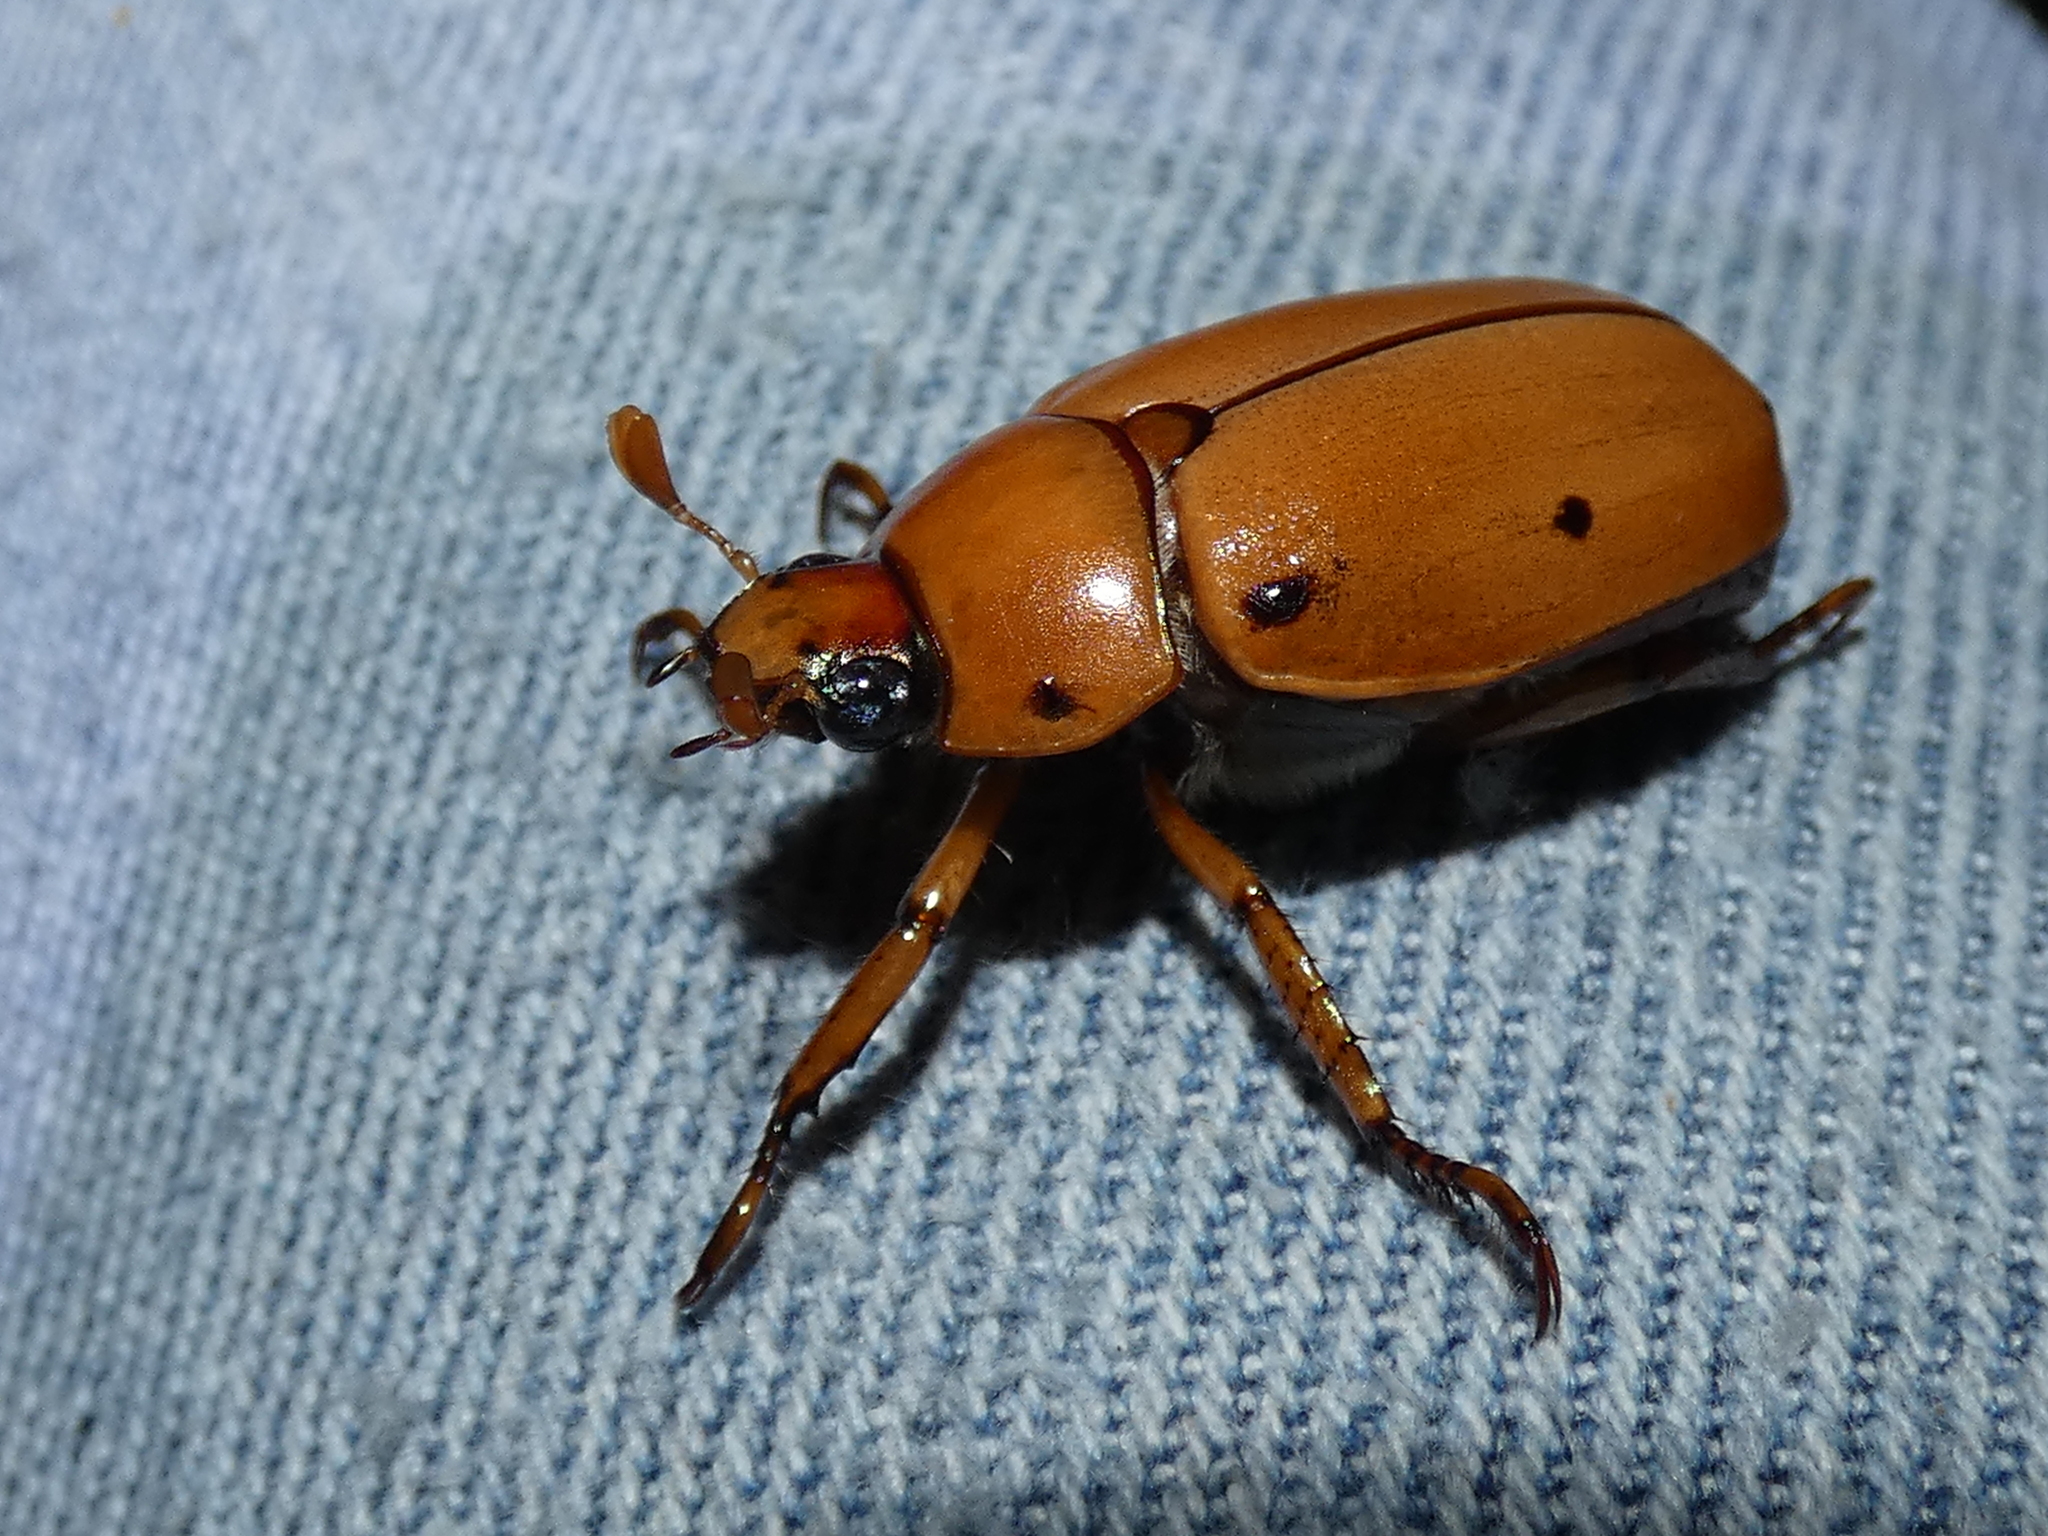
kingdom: Animalia
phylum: Arthropoda
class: Insecta
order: Coleoptera
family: Scarabaeidae
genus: Pelidnota
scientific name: Pelidnota punctata
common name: Grapevine beetle
